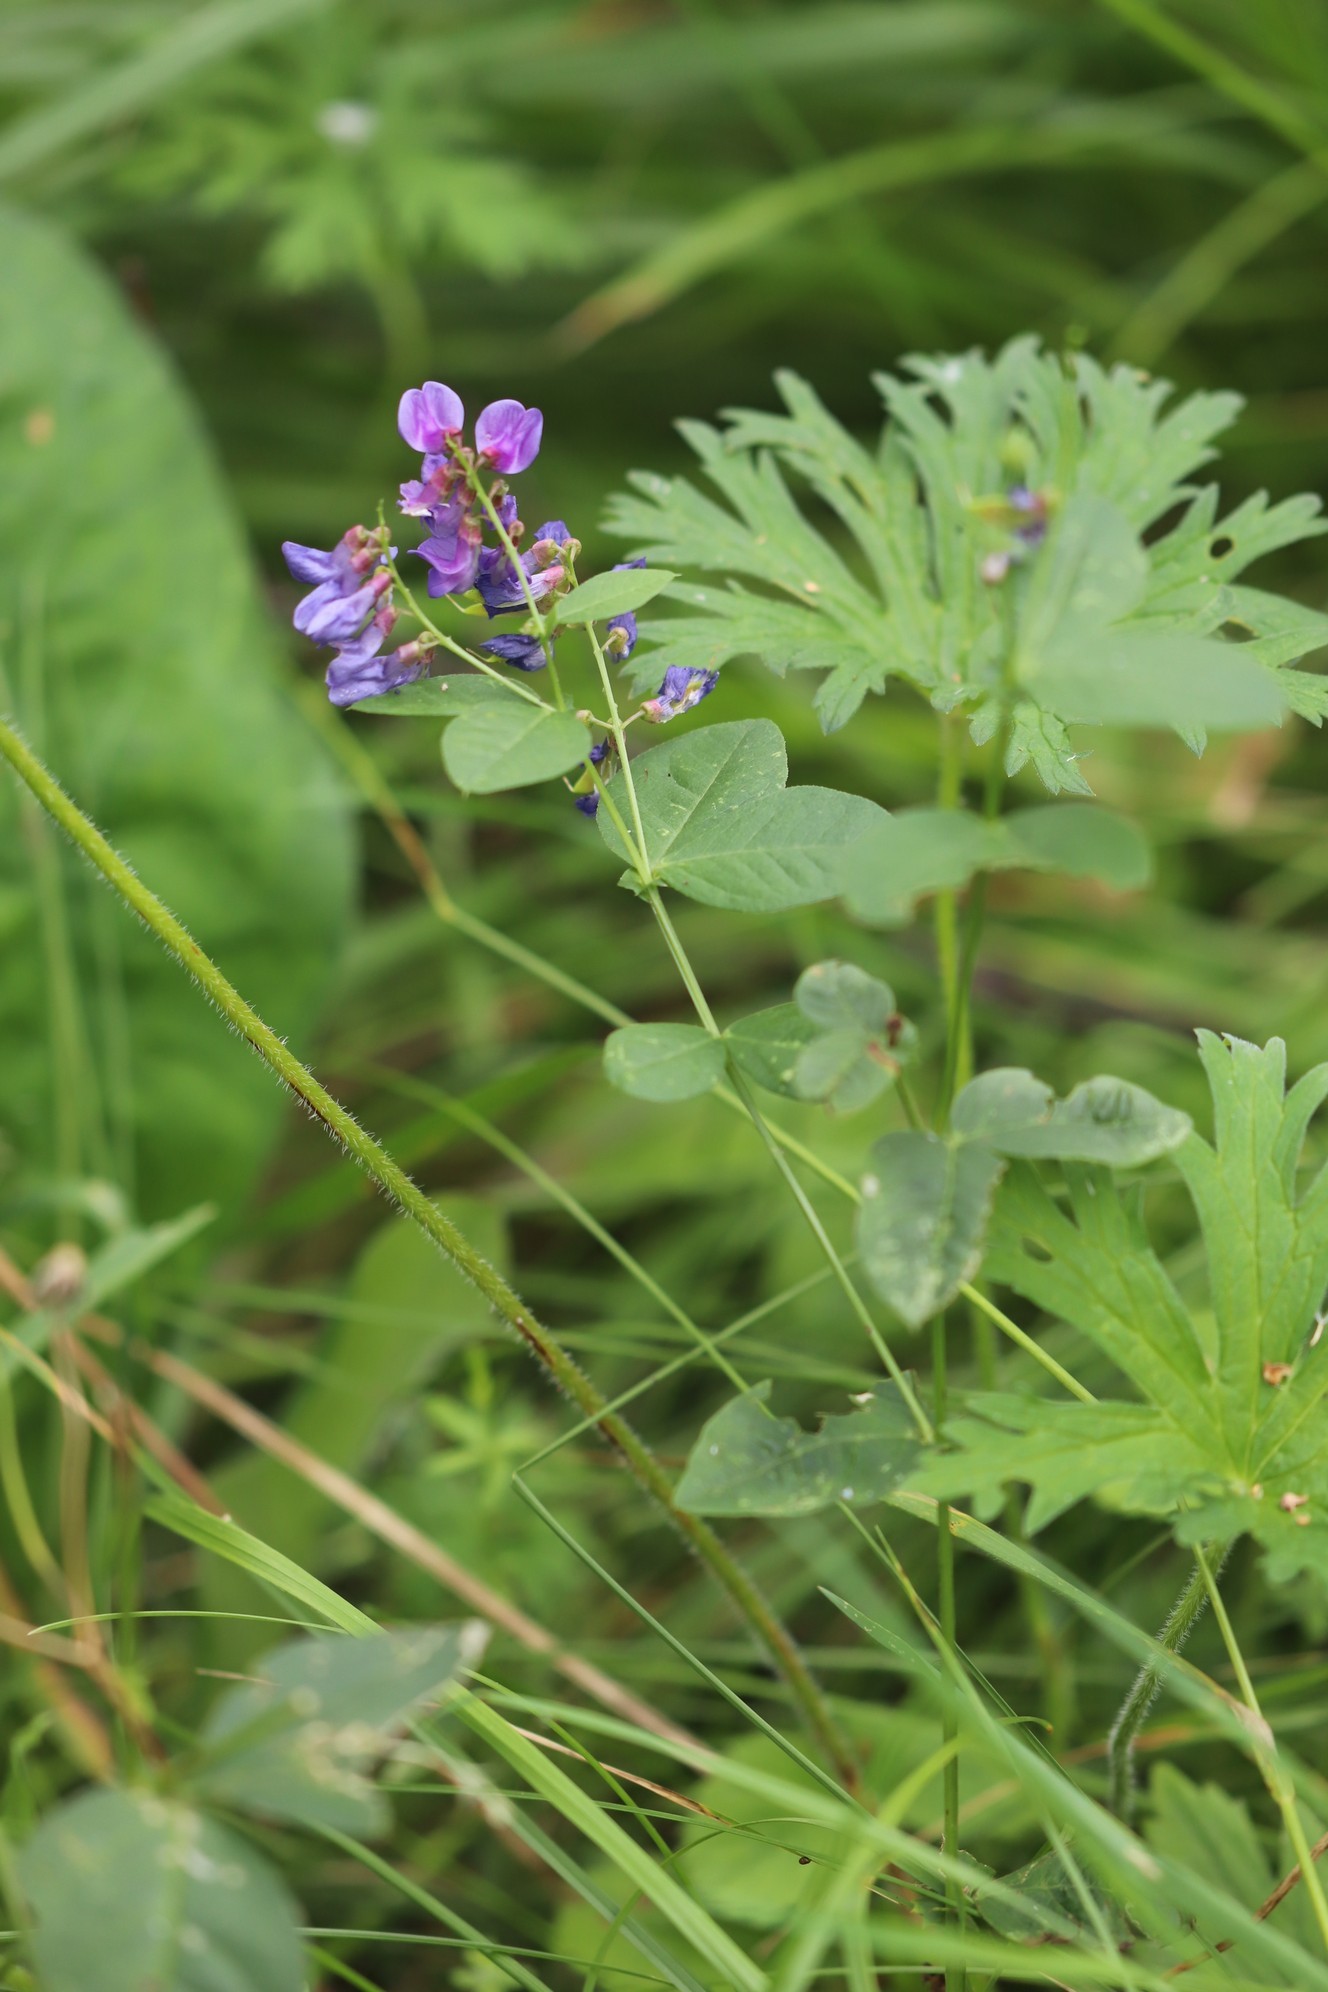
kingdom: Plantae
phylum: Tracheophyta
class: Magnoliopsida
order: Fabales
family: Fabaceae
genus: Vicia
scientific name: Vicia unijuga
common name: Two-leaf vetch
